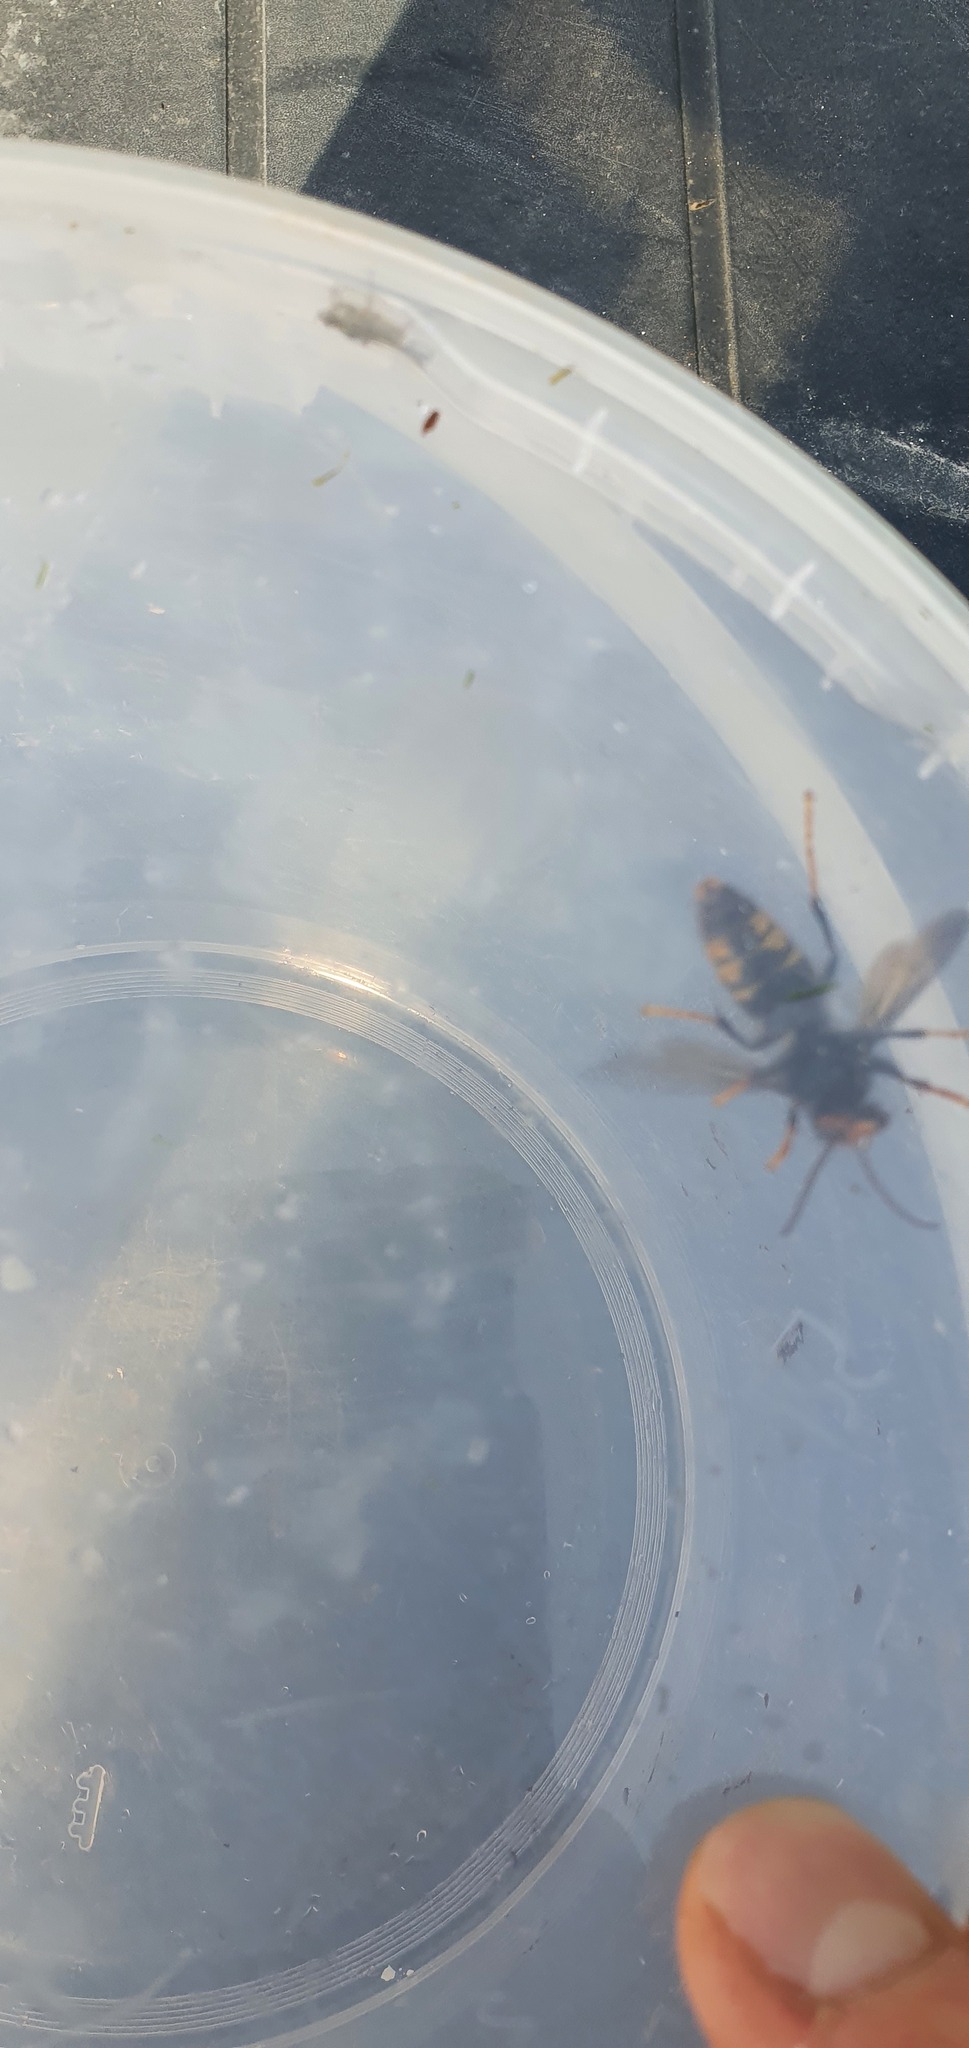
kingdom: Animalia
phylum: Arthropoda
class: Insecta
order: Hymenoptera
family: Vespidae
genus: Vespa
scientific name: Vespa velutina
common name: Asian hornet
